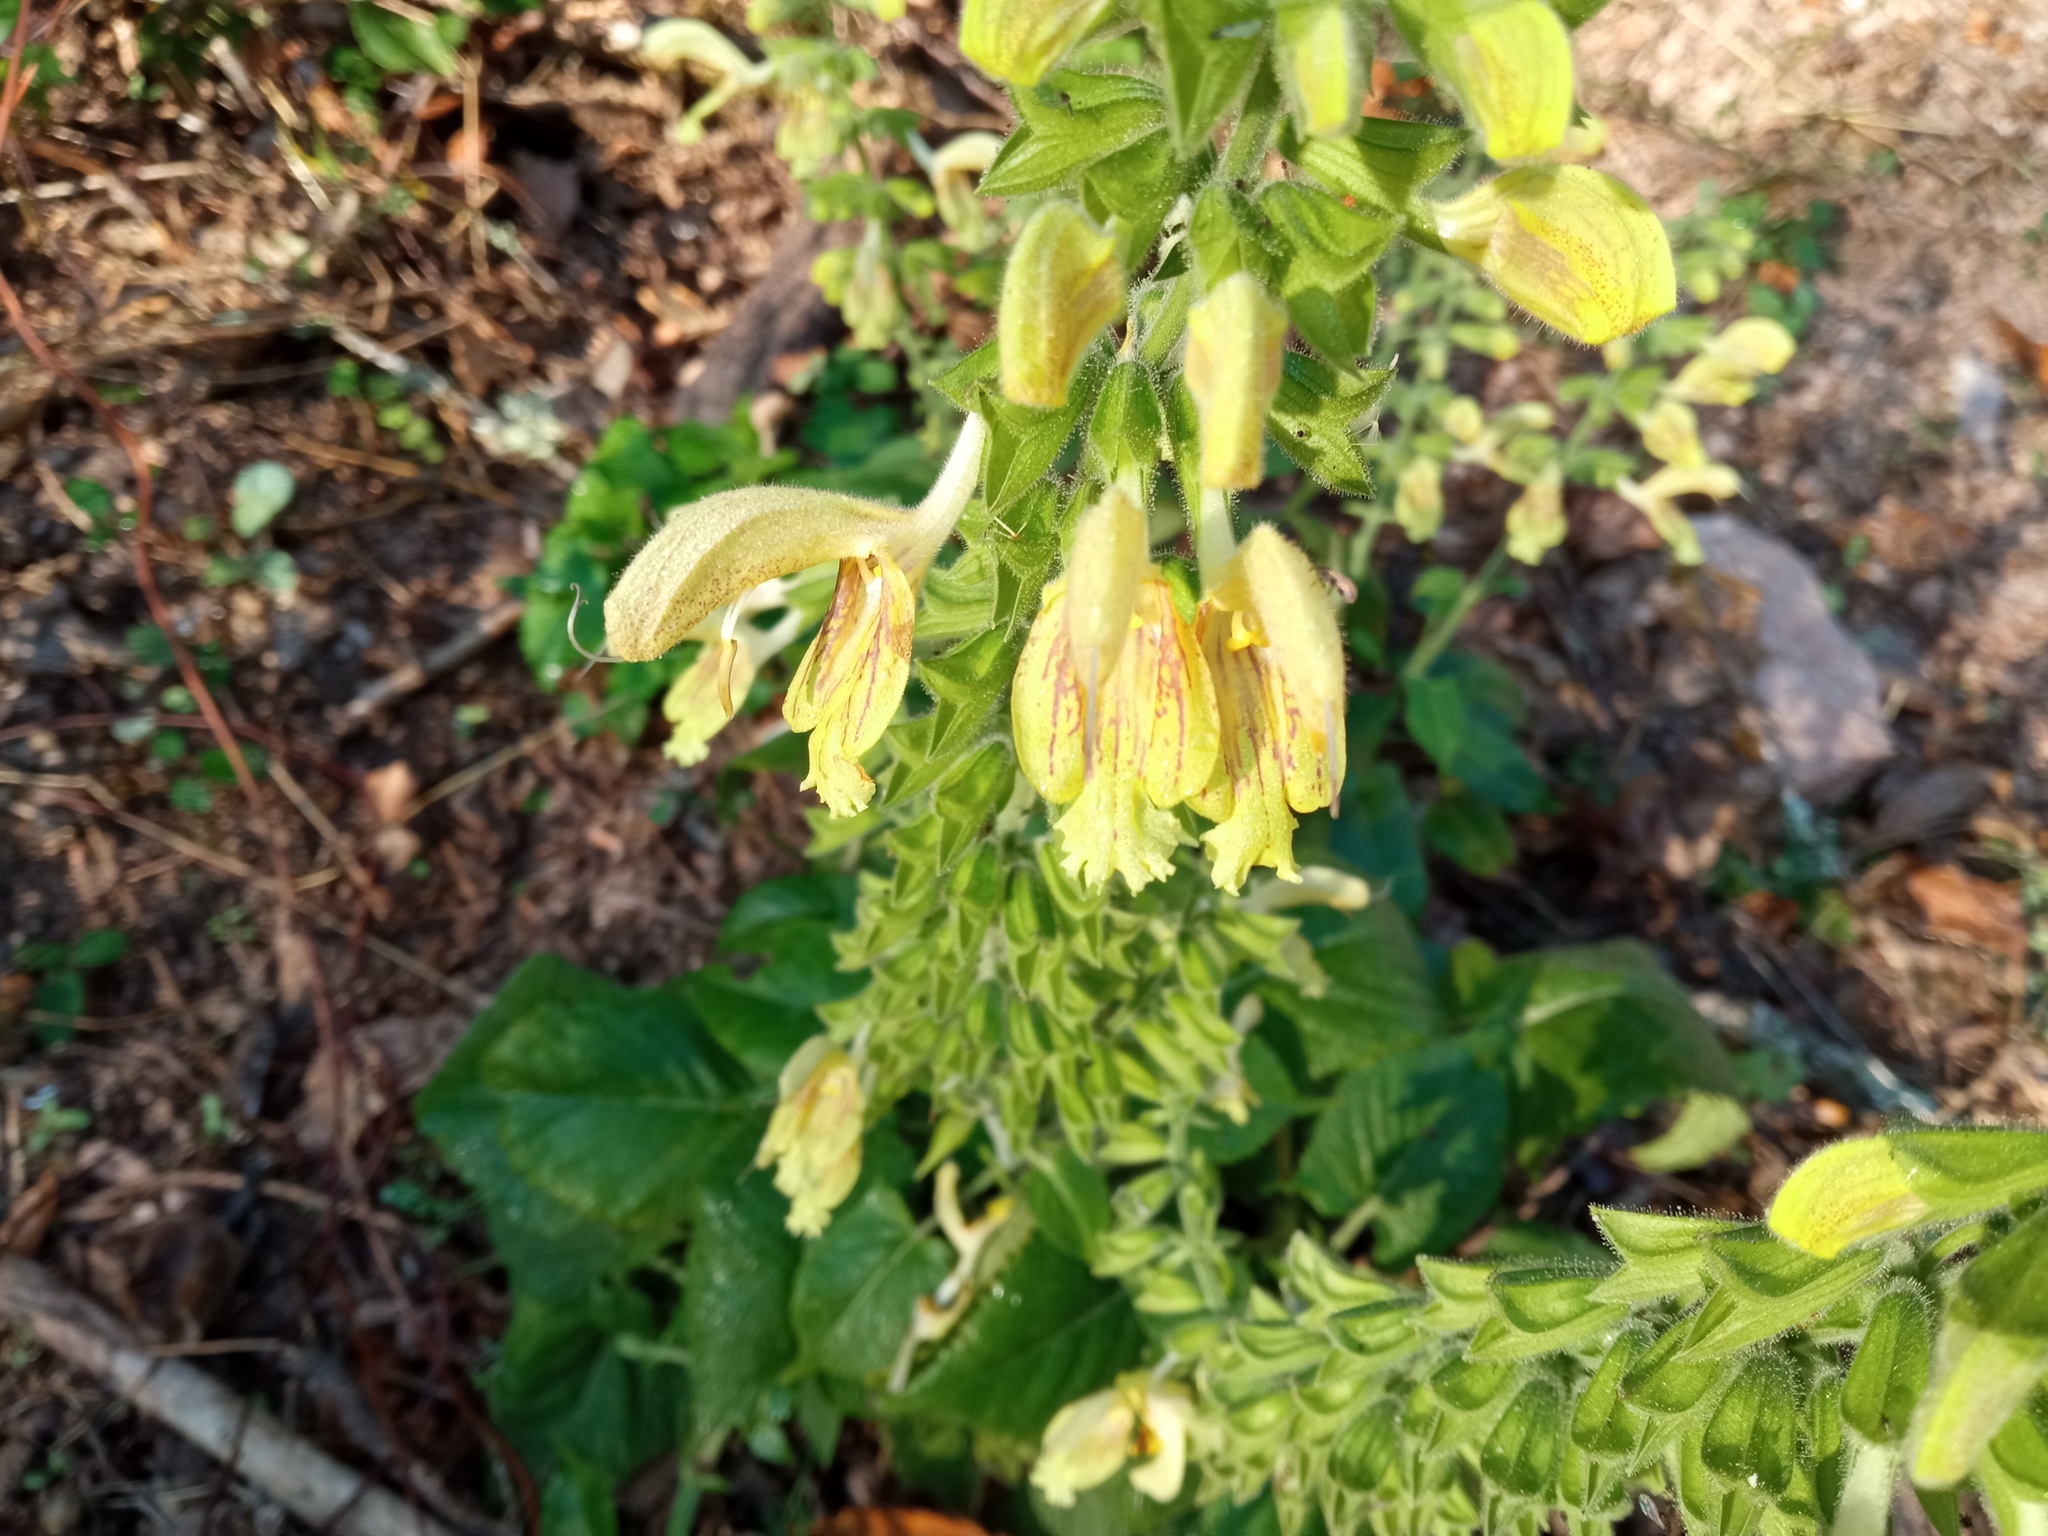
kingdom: Plantae
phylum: Tracheophyta
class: Magnoliopsida
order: Lamiales
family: Lamiaceae
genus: Salvia
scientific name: Salvia glutinosa
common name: Sticky clary
